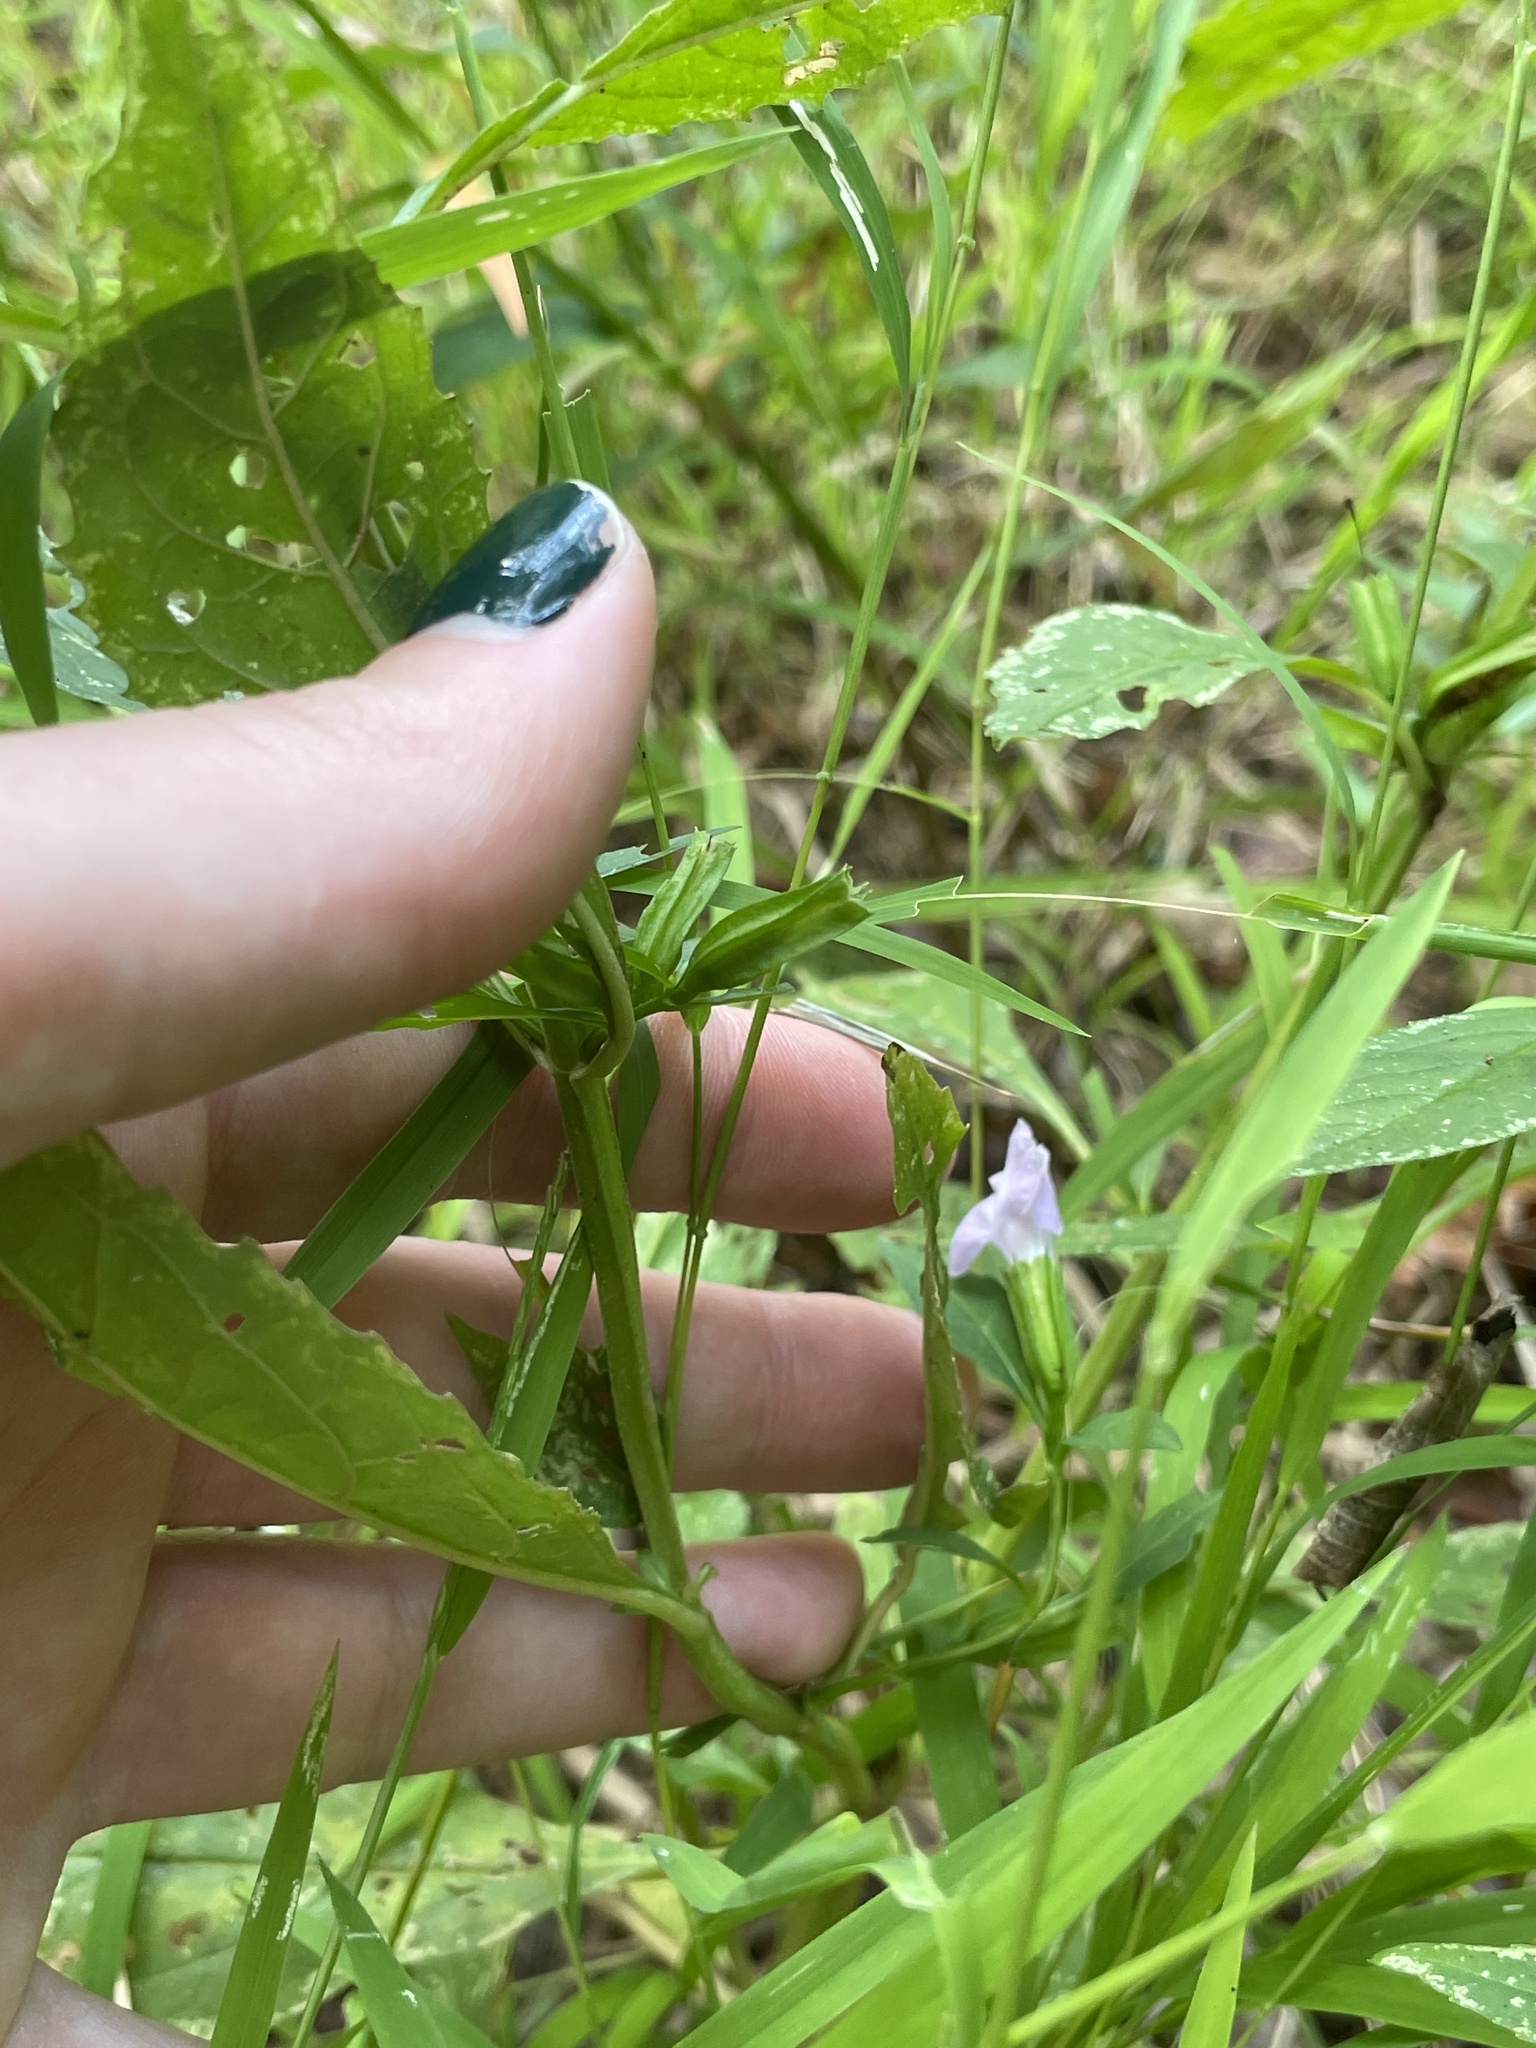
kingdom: Plantae
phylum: Tracheophyta
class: Magnoliopsida
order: Lamiales
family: Phrymaceae
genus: Mimulus
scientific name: Mimulus alatus
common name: Sharp-wing monkey-flower
